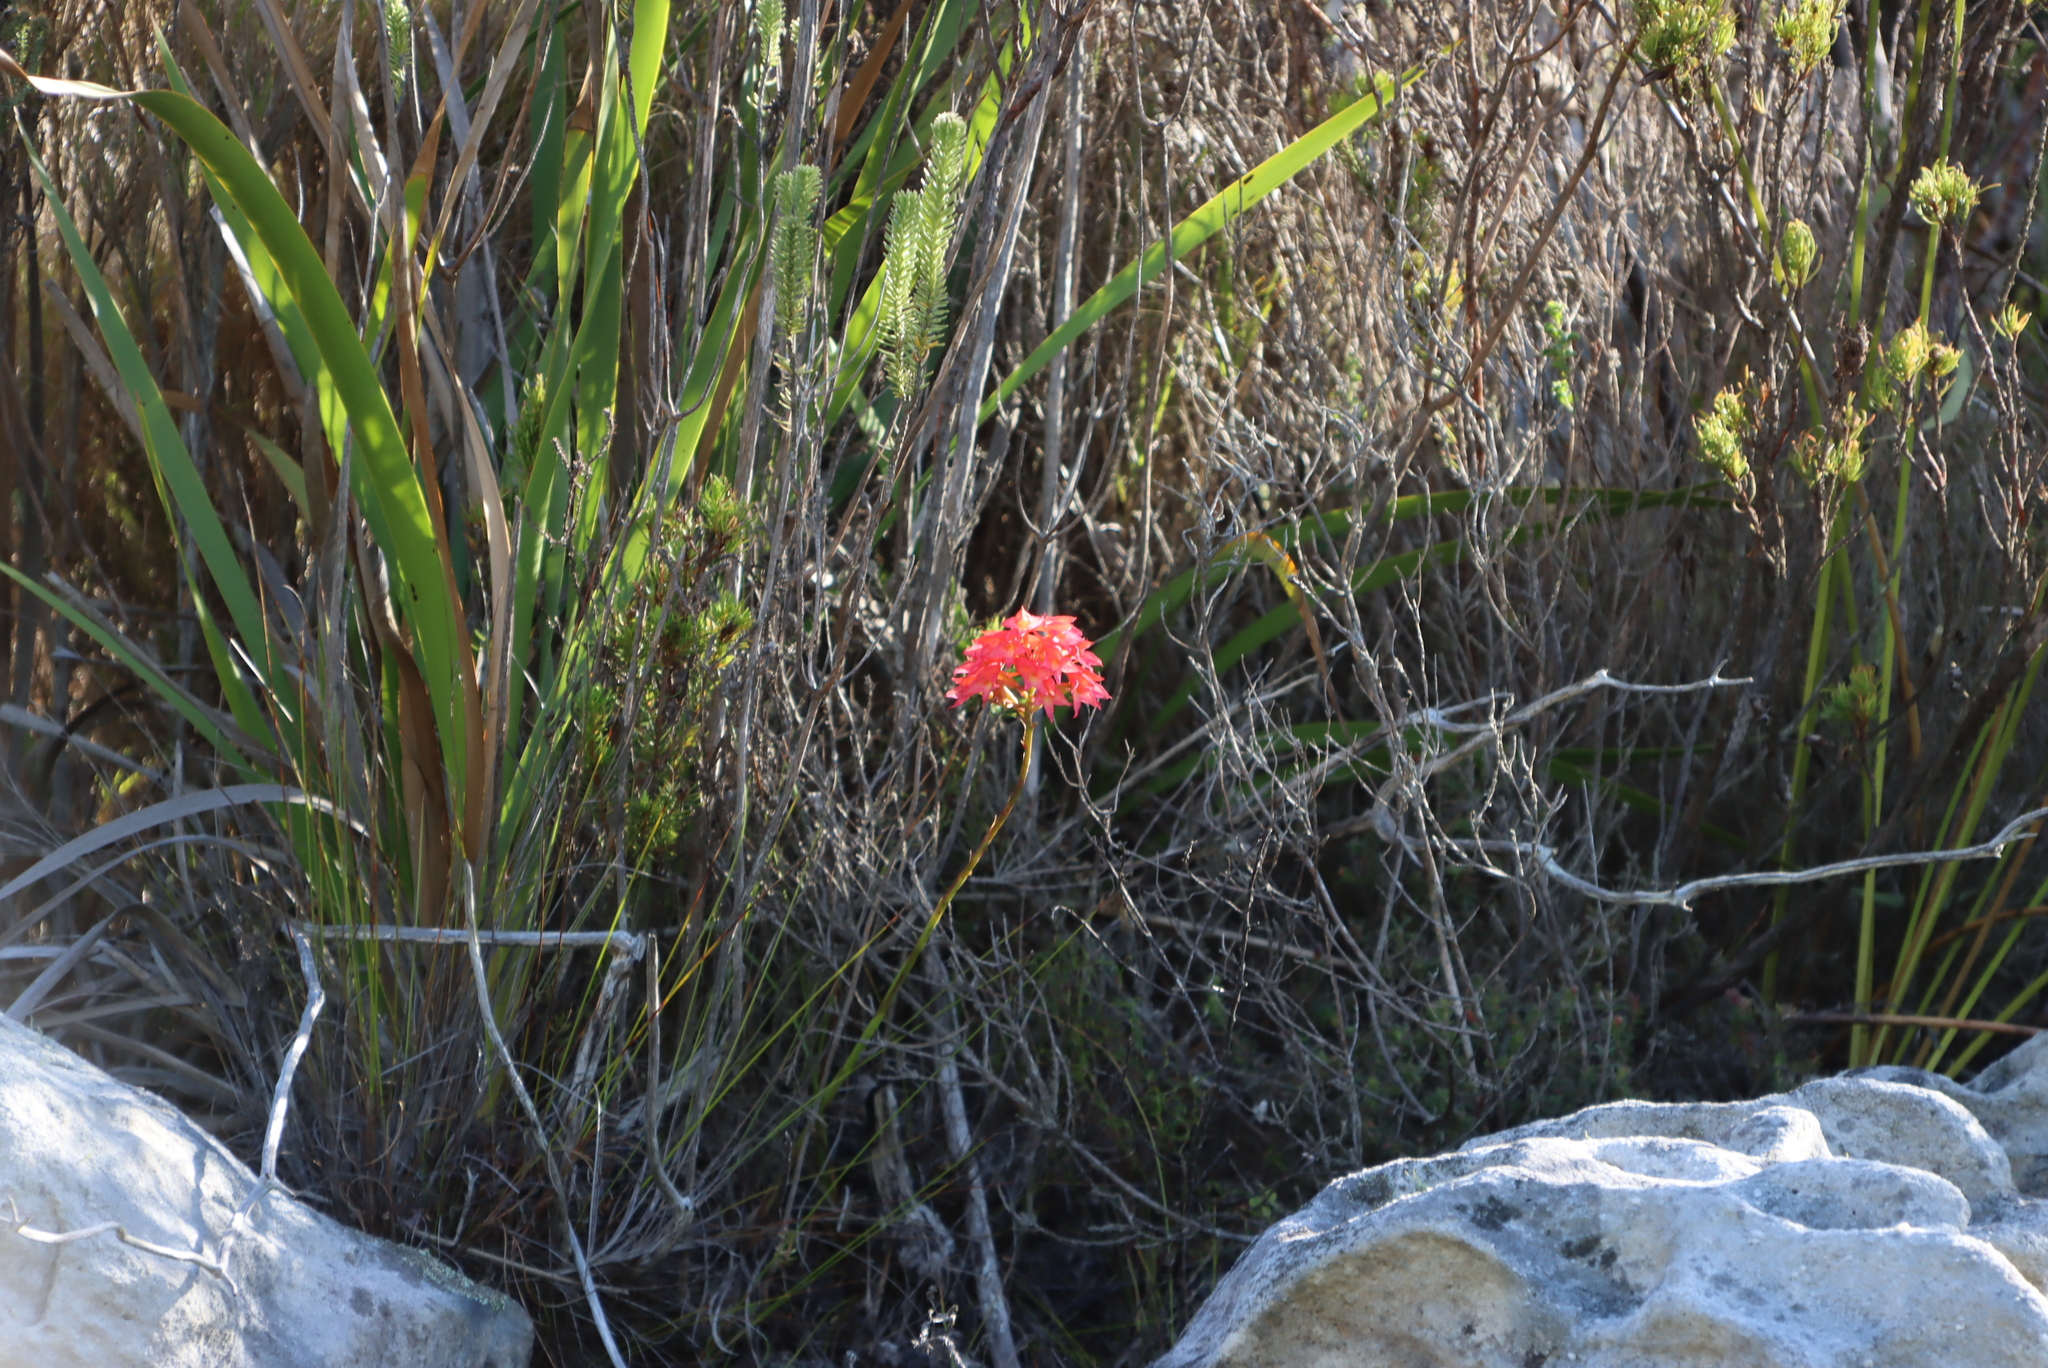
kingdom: Plantae
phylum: Tracheophyta
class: Liliopsida
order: Asparagales
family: Orchidaceae
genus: Disa
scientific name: Disa ferruginea
